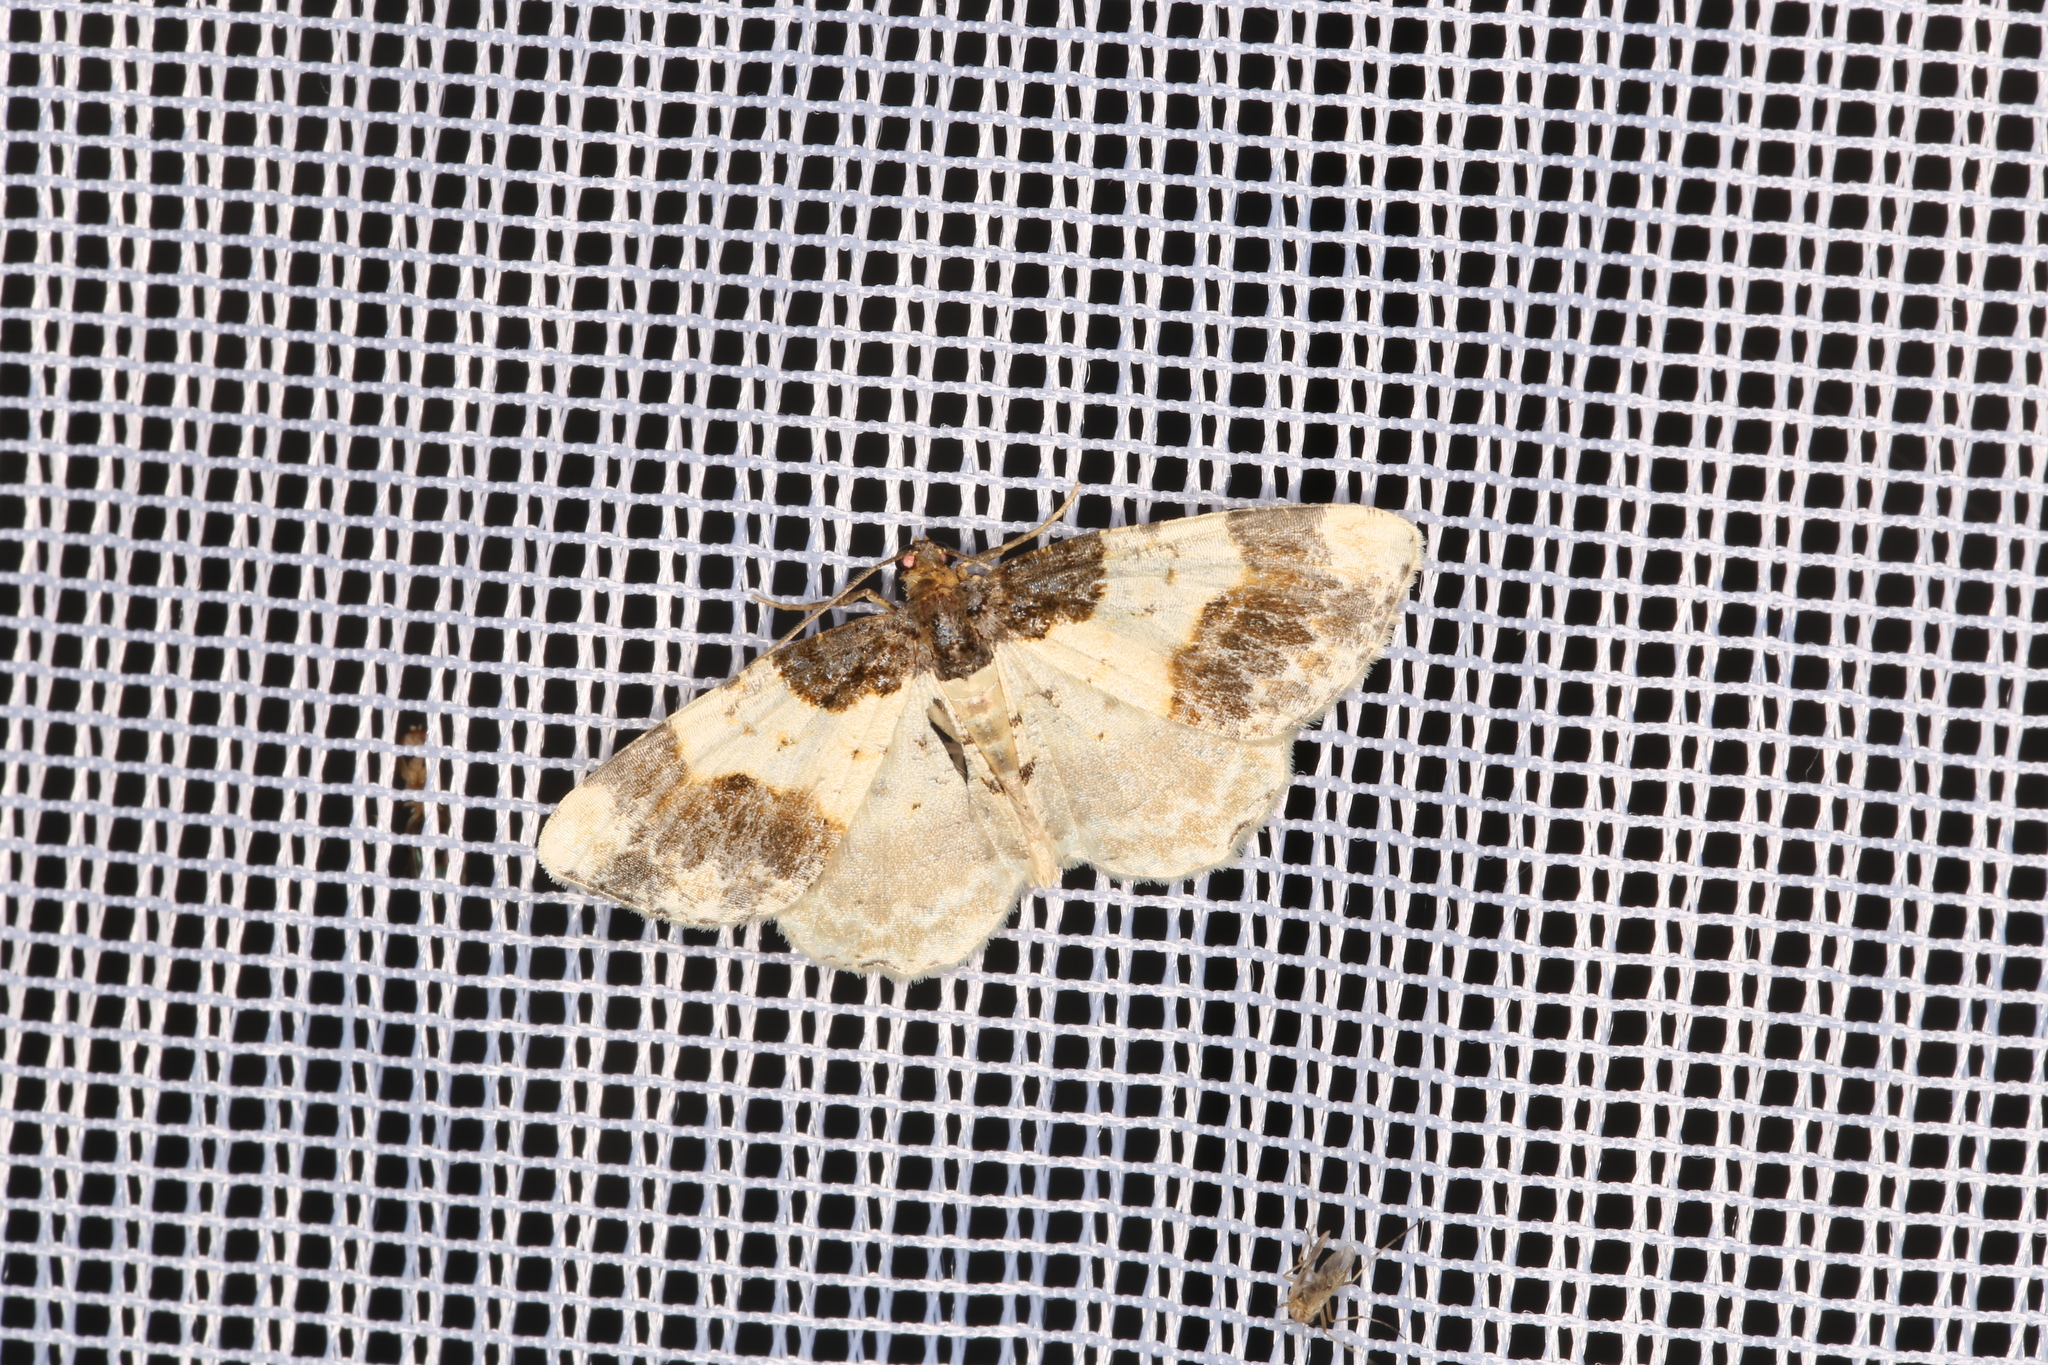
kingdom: Animalia
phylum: Arthropoda
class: Insecta
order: Lepidoptera
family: Geometridae
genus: Ligdia
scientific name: Ligdia adustata
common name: Scorched carpet
